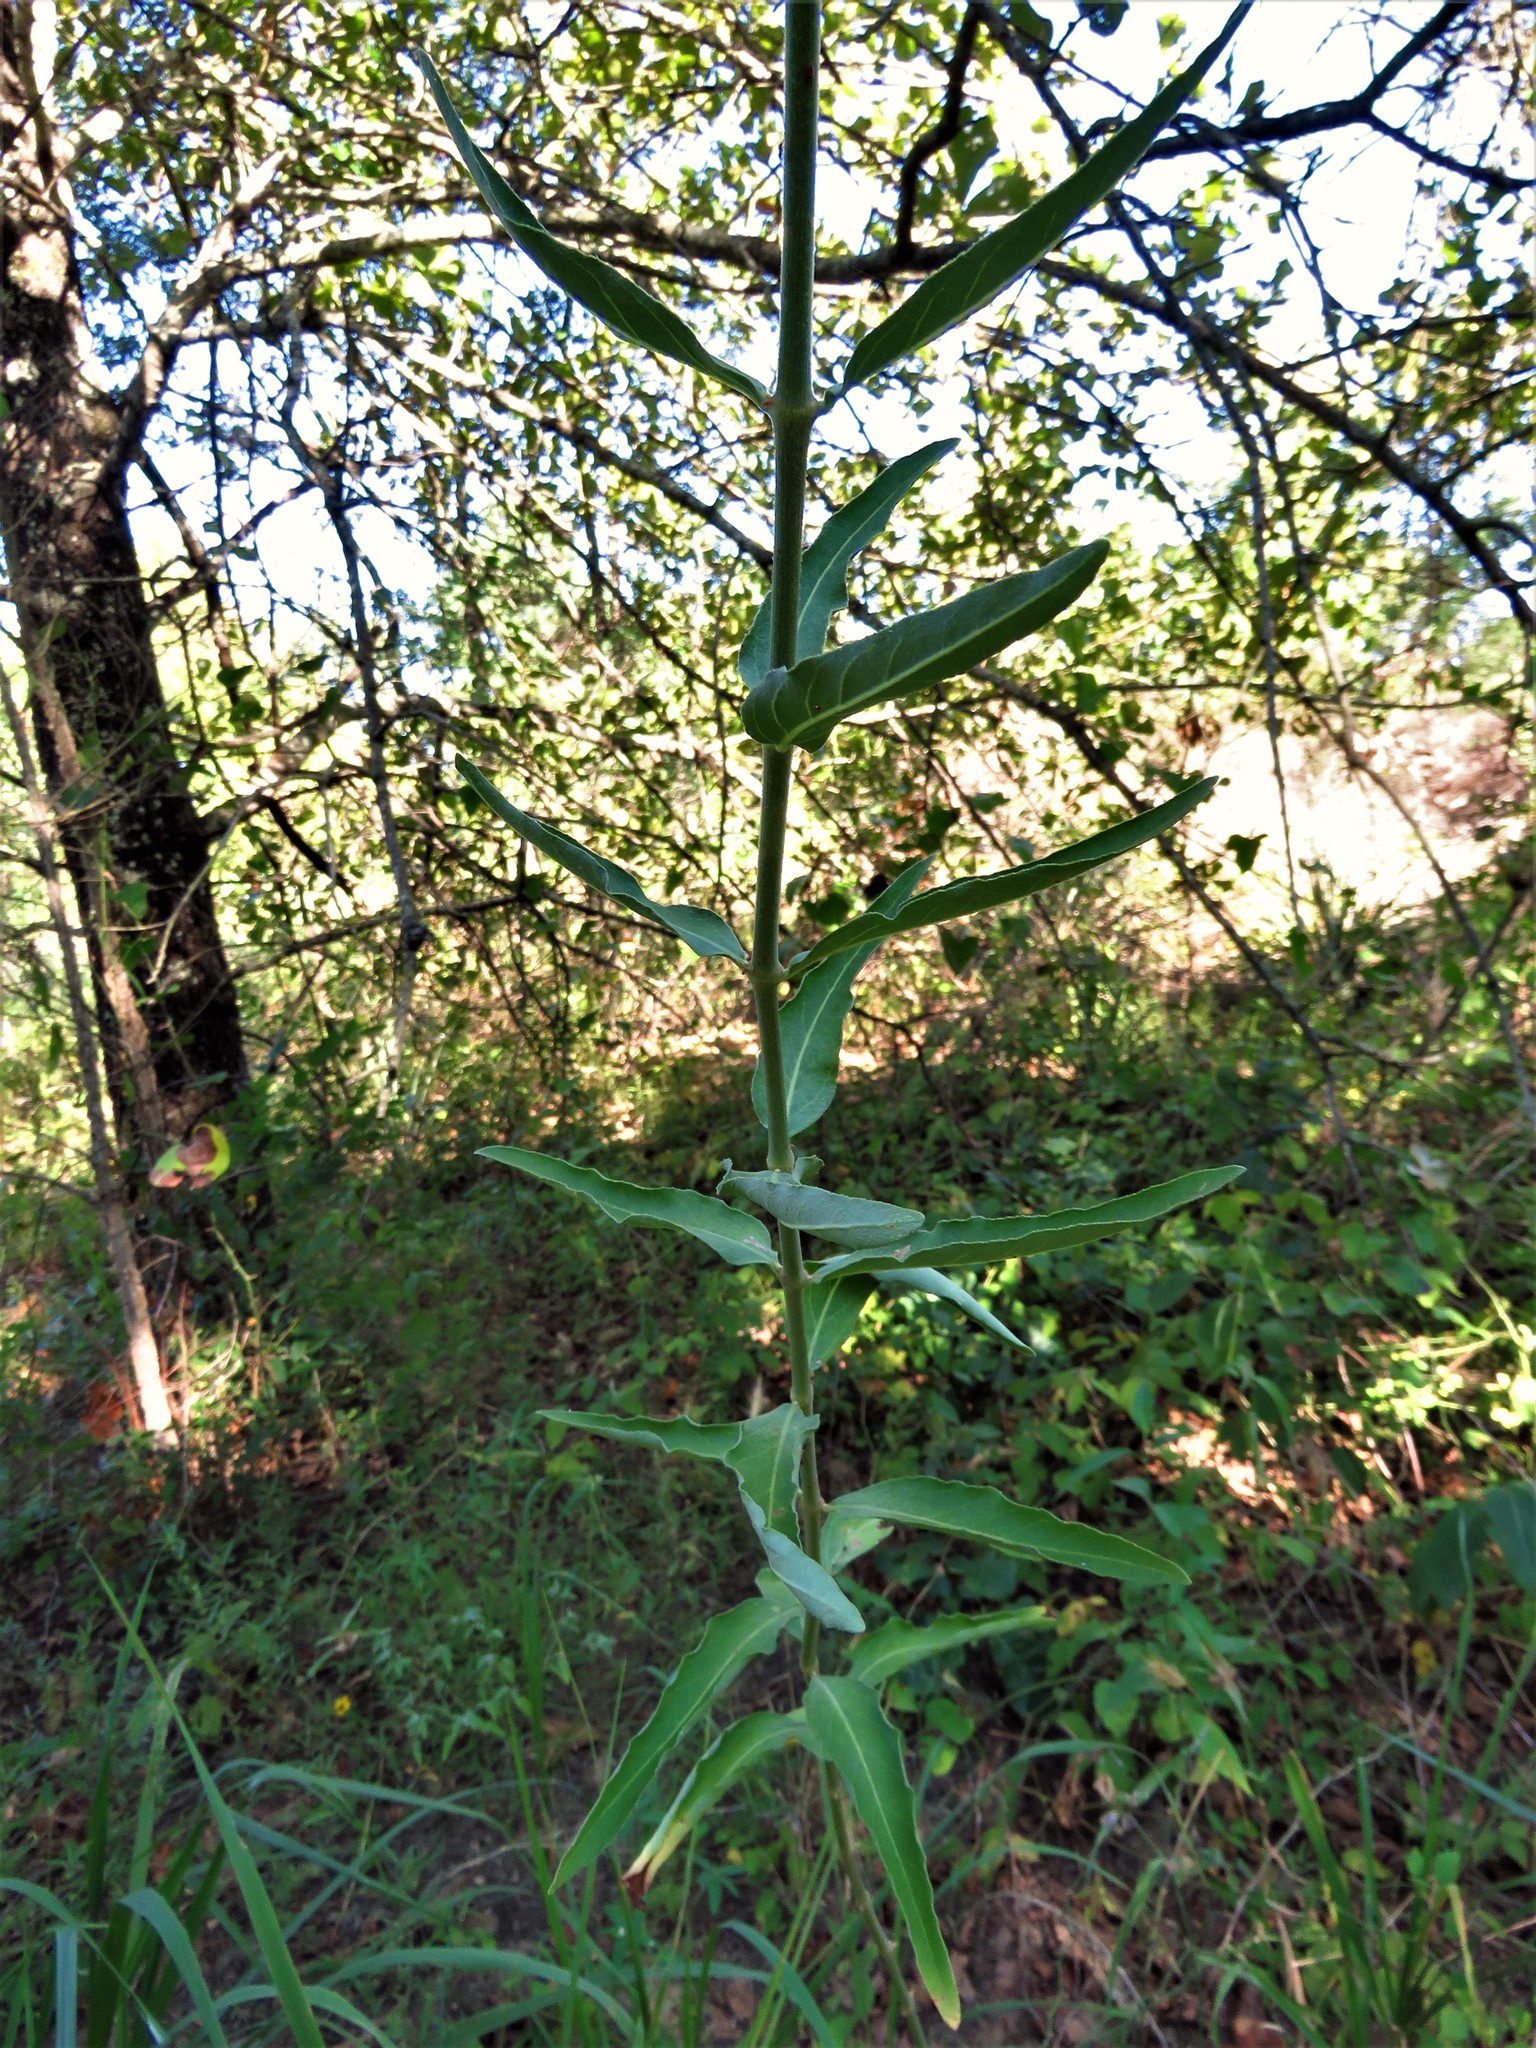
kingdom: Plantae
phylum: Tracheophyta
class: Magnoliopsida
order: Caryophyllales
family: Nyctaginaceae
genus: Mirabilis
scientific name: Mirabilis albida
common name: Hairy four-o'clock
